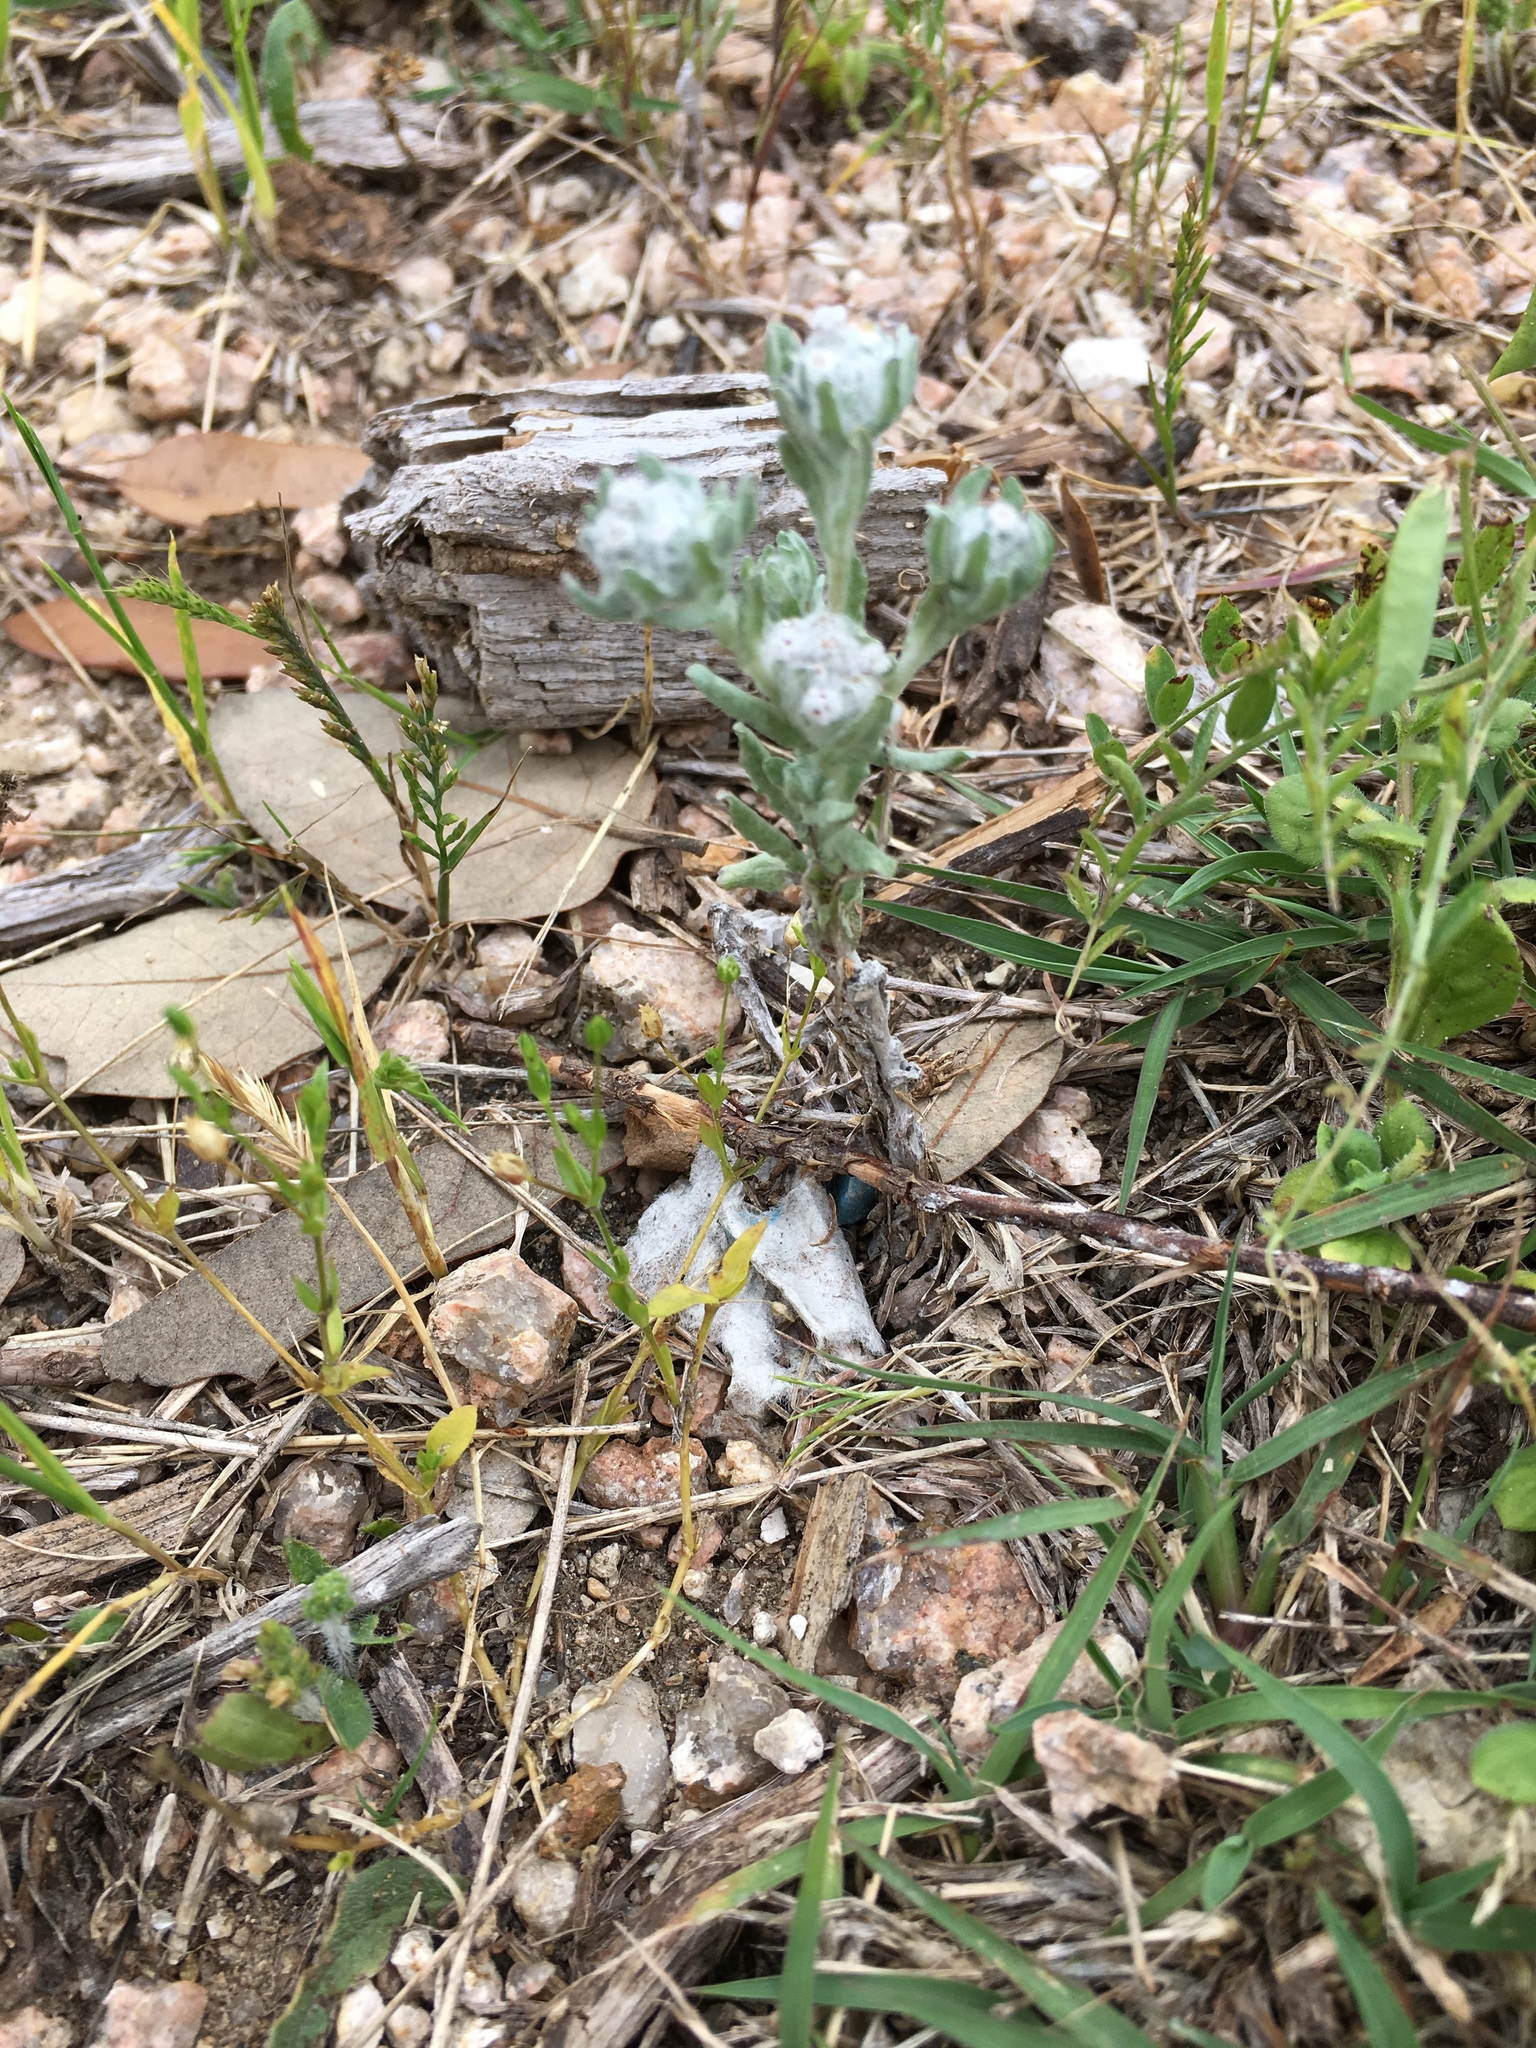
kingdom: Plantae
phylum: Tracheophyta
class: Magnoliopsida
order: Asterales
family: Asteraceae
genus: Diaperia
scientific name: Diaperia verna
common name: Many-stem rabbit-tobacco
